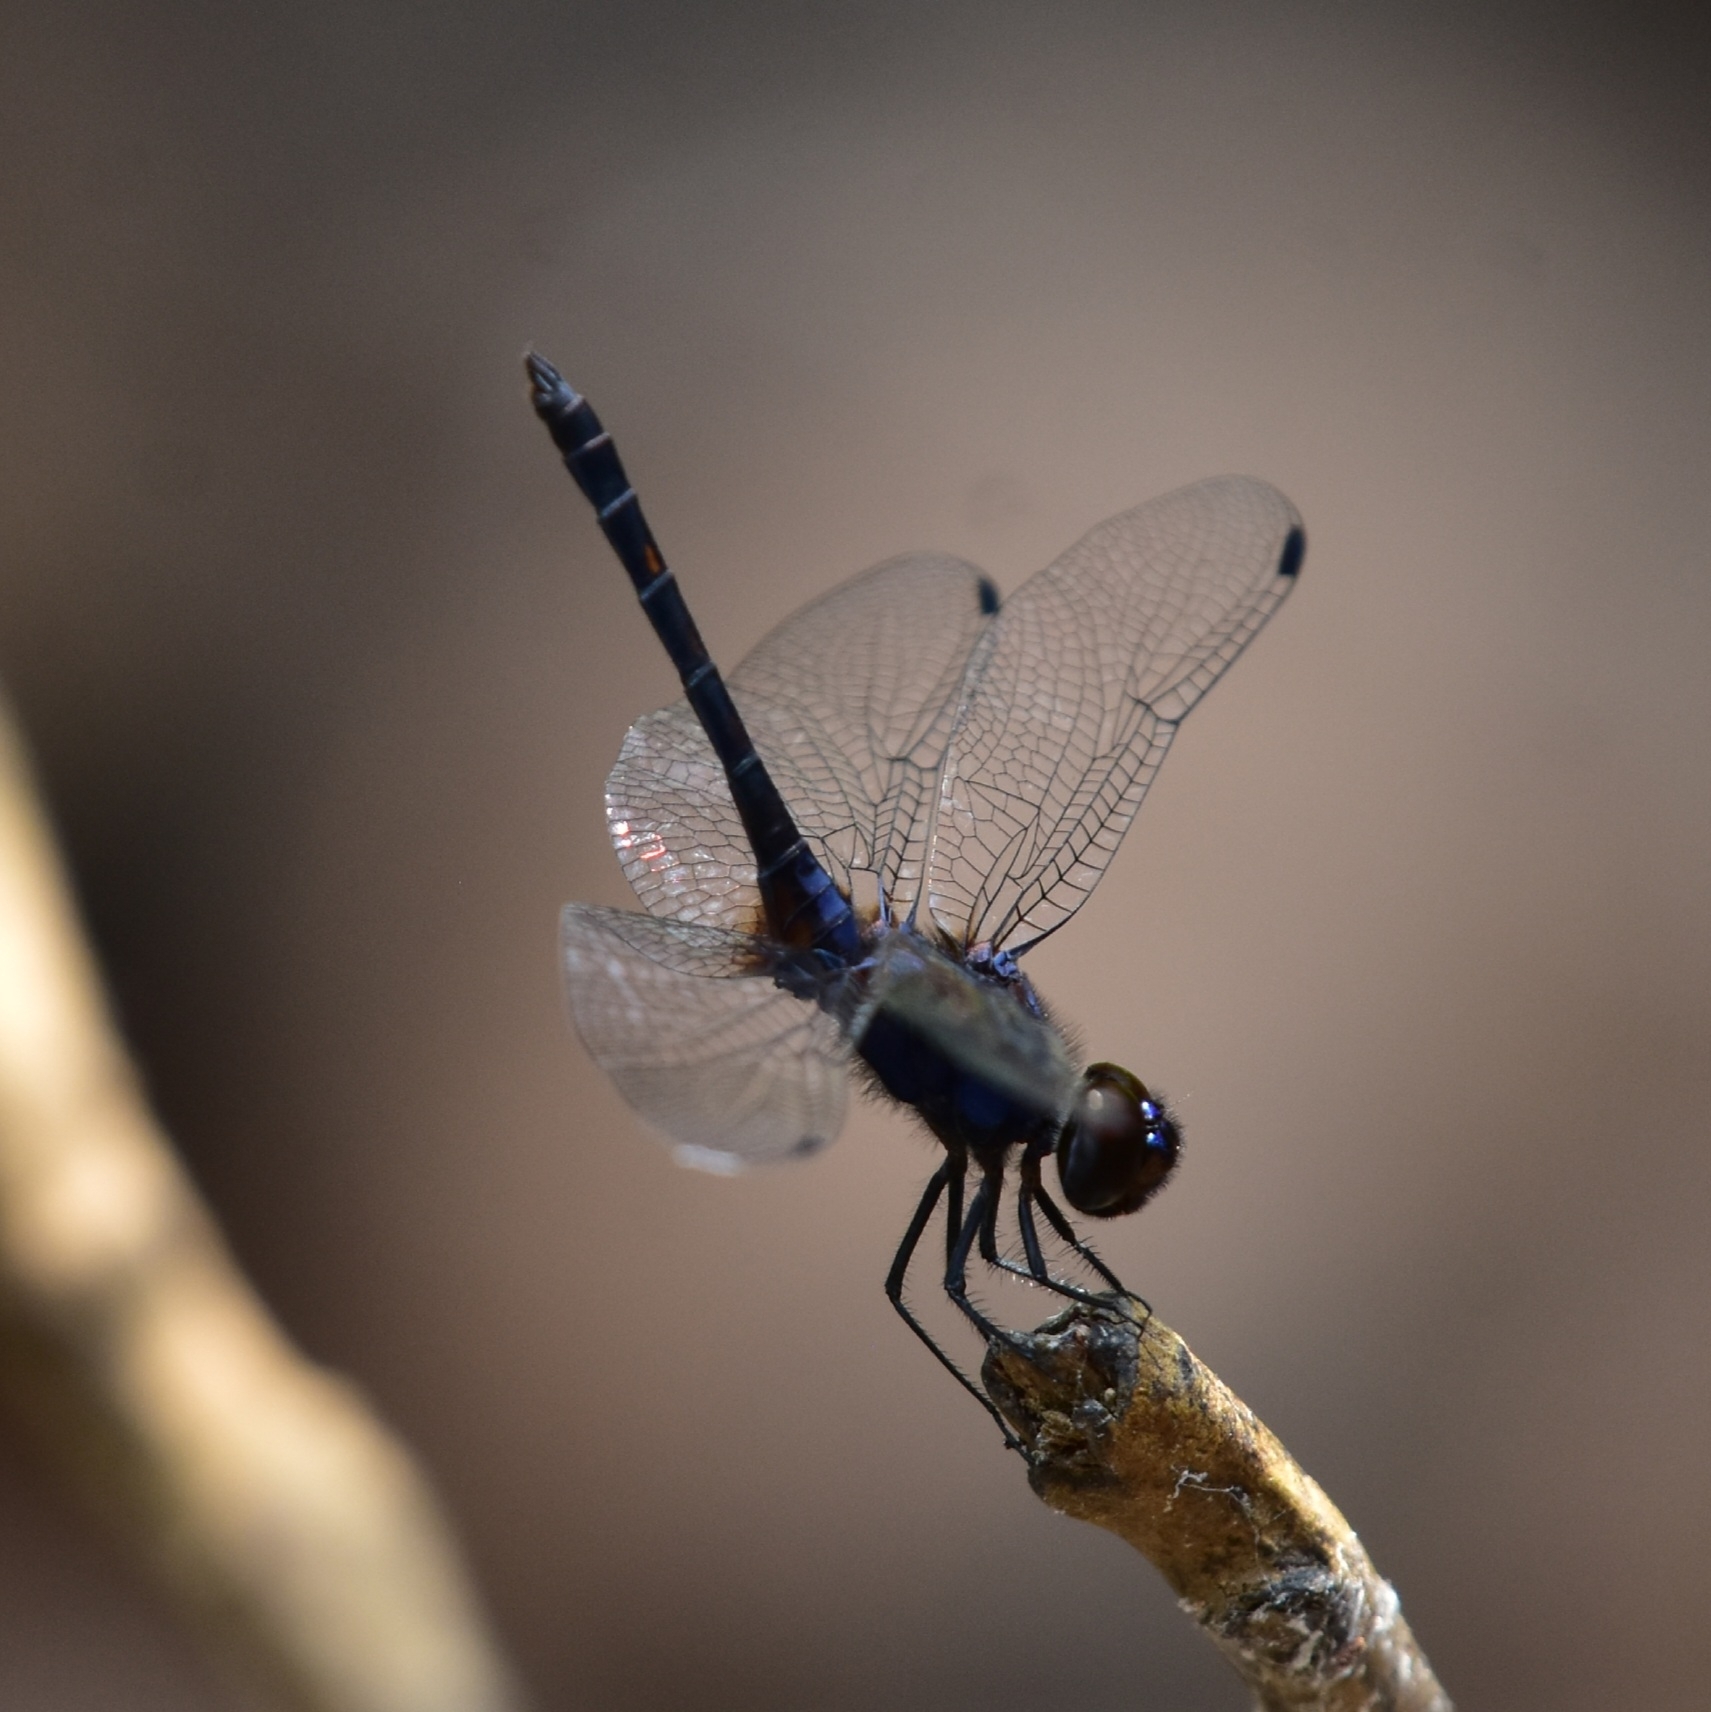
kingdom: Animalia
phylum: Arthropoda
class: Insecta
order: Odonata
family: Libellulidae
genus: Trithemis
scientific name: Trithemis festiva
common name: Indigo dropwing
